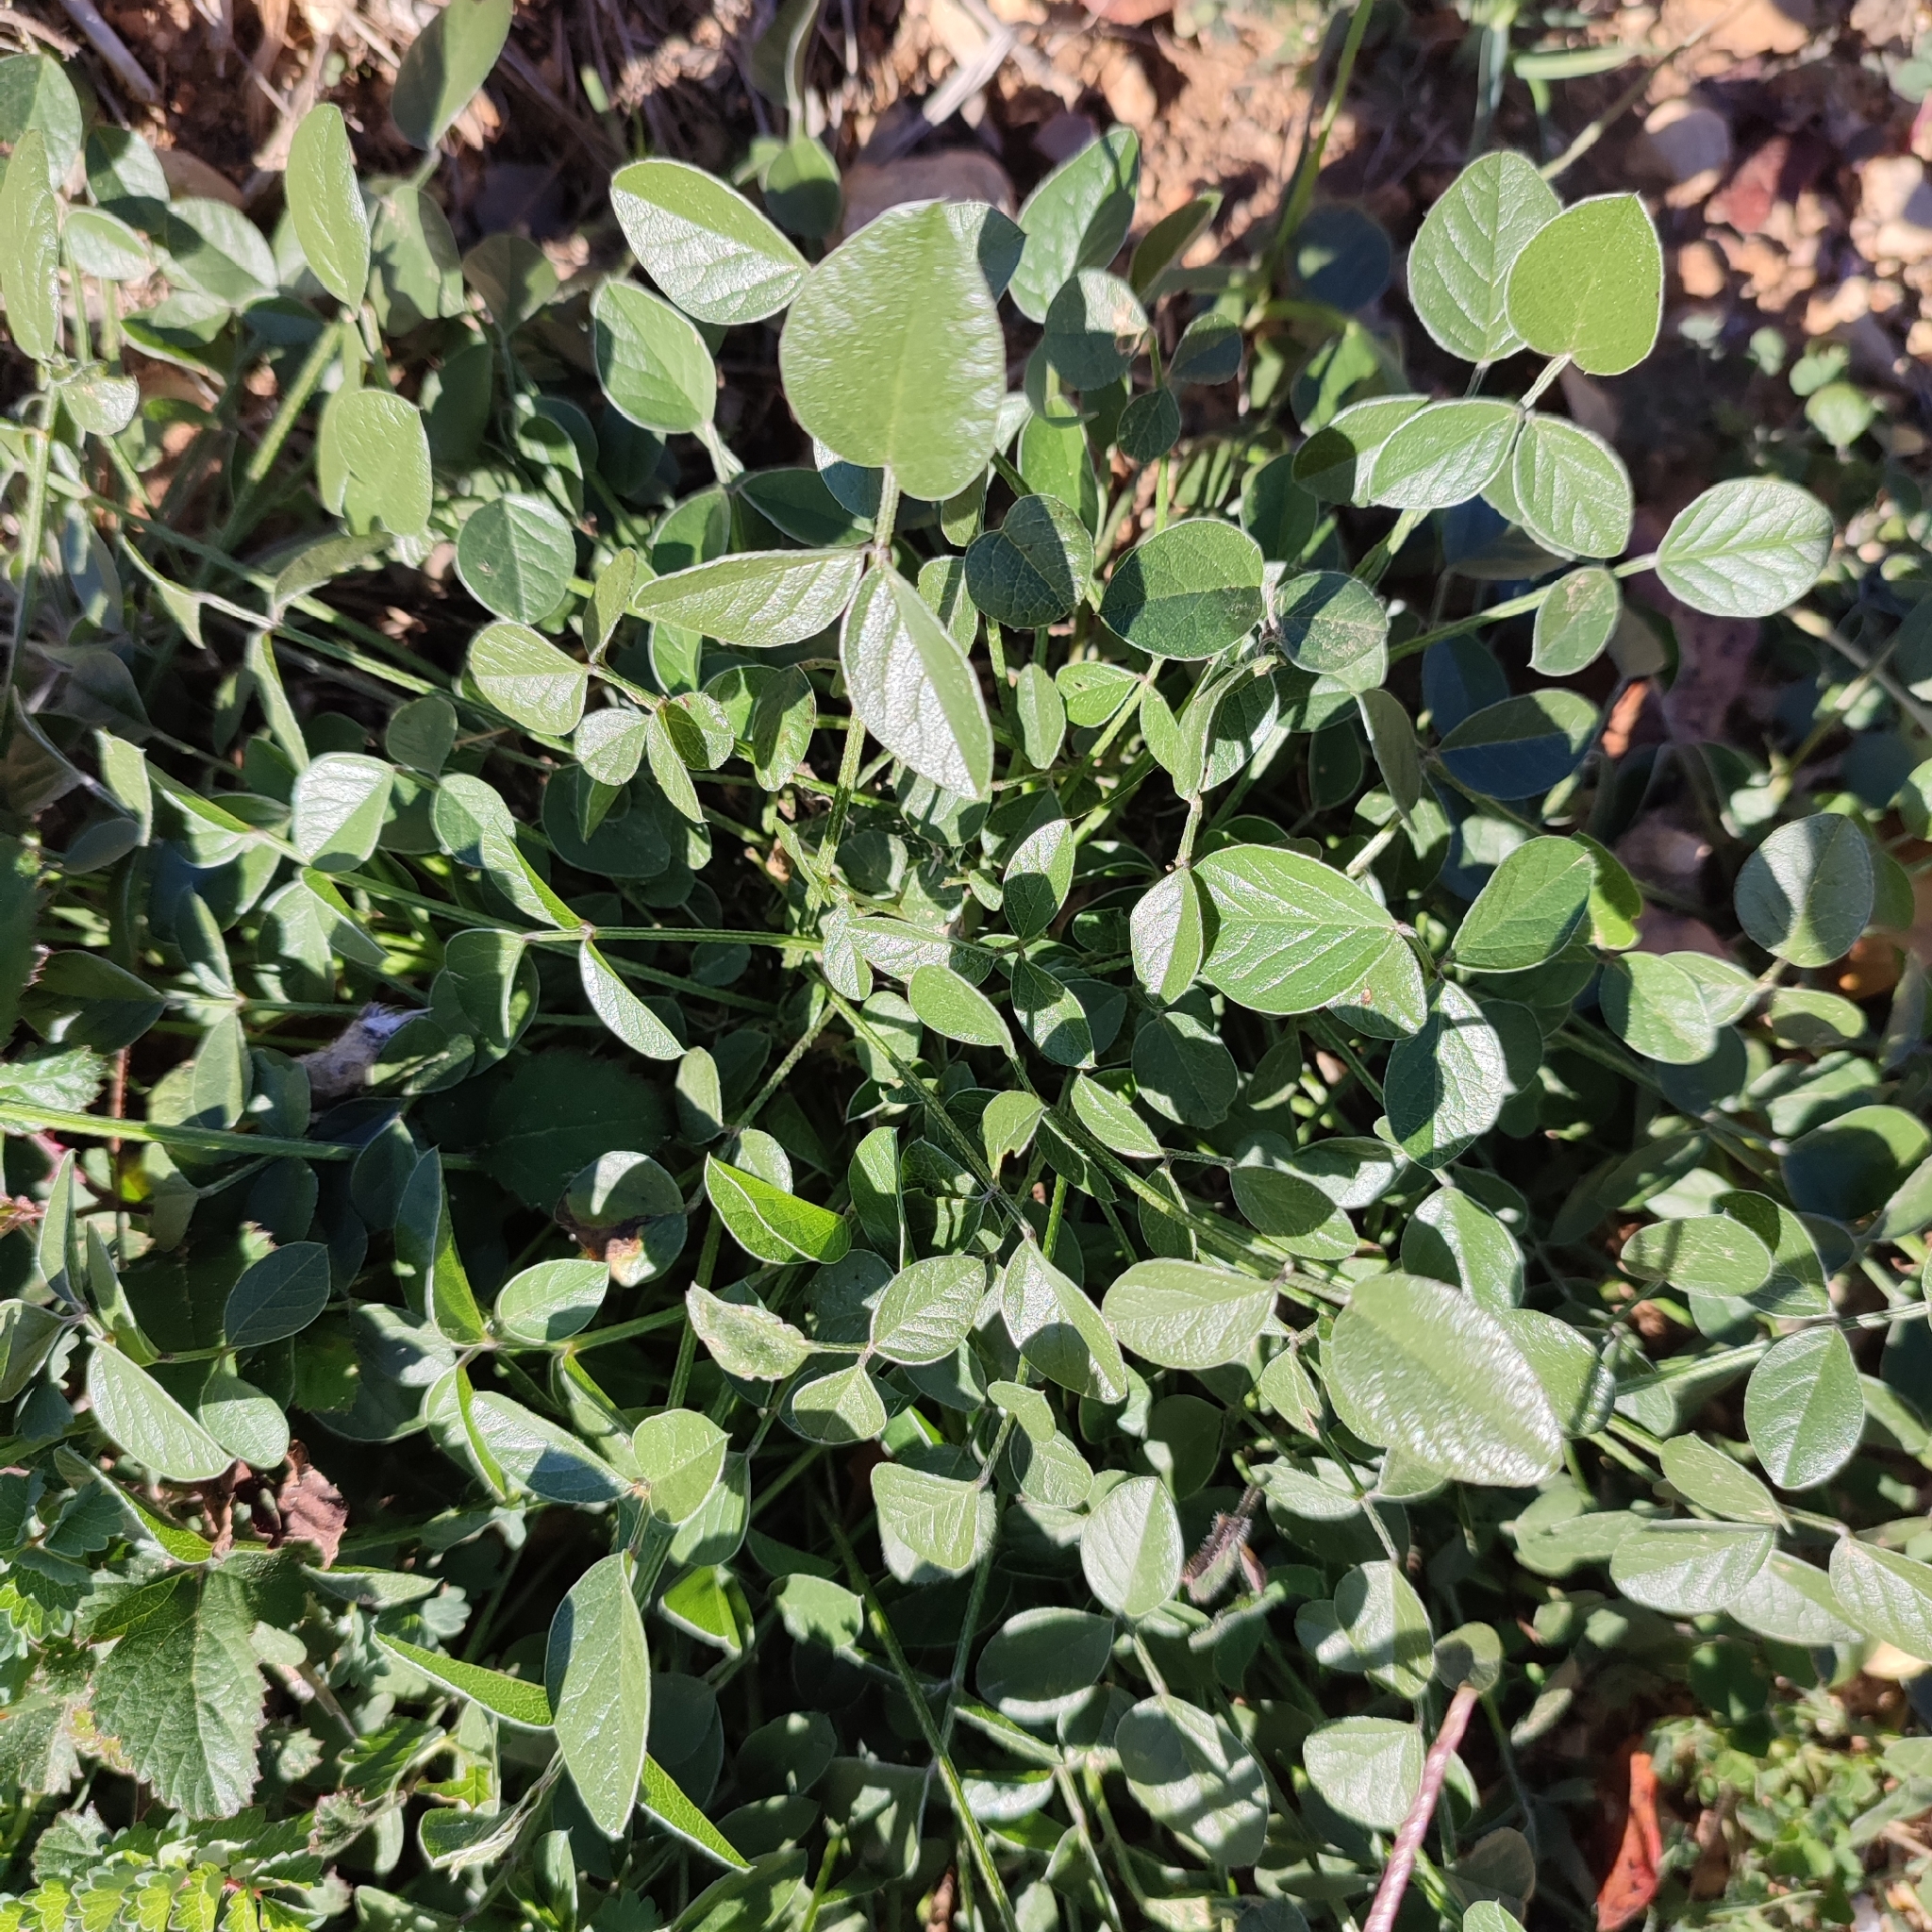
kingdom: Plantae
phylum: Tracheophyta
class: Magnoliopsida
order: Fabales
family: Fabaceae
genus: Bituminaria
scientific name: Bituminaria bituminosa
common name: Arabian pea
